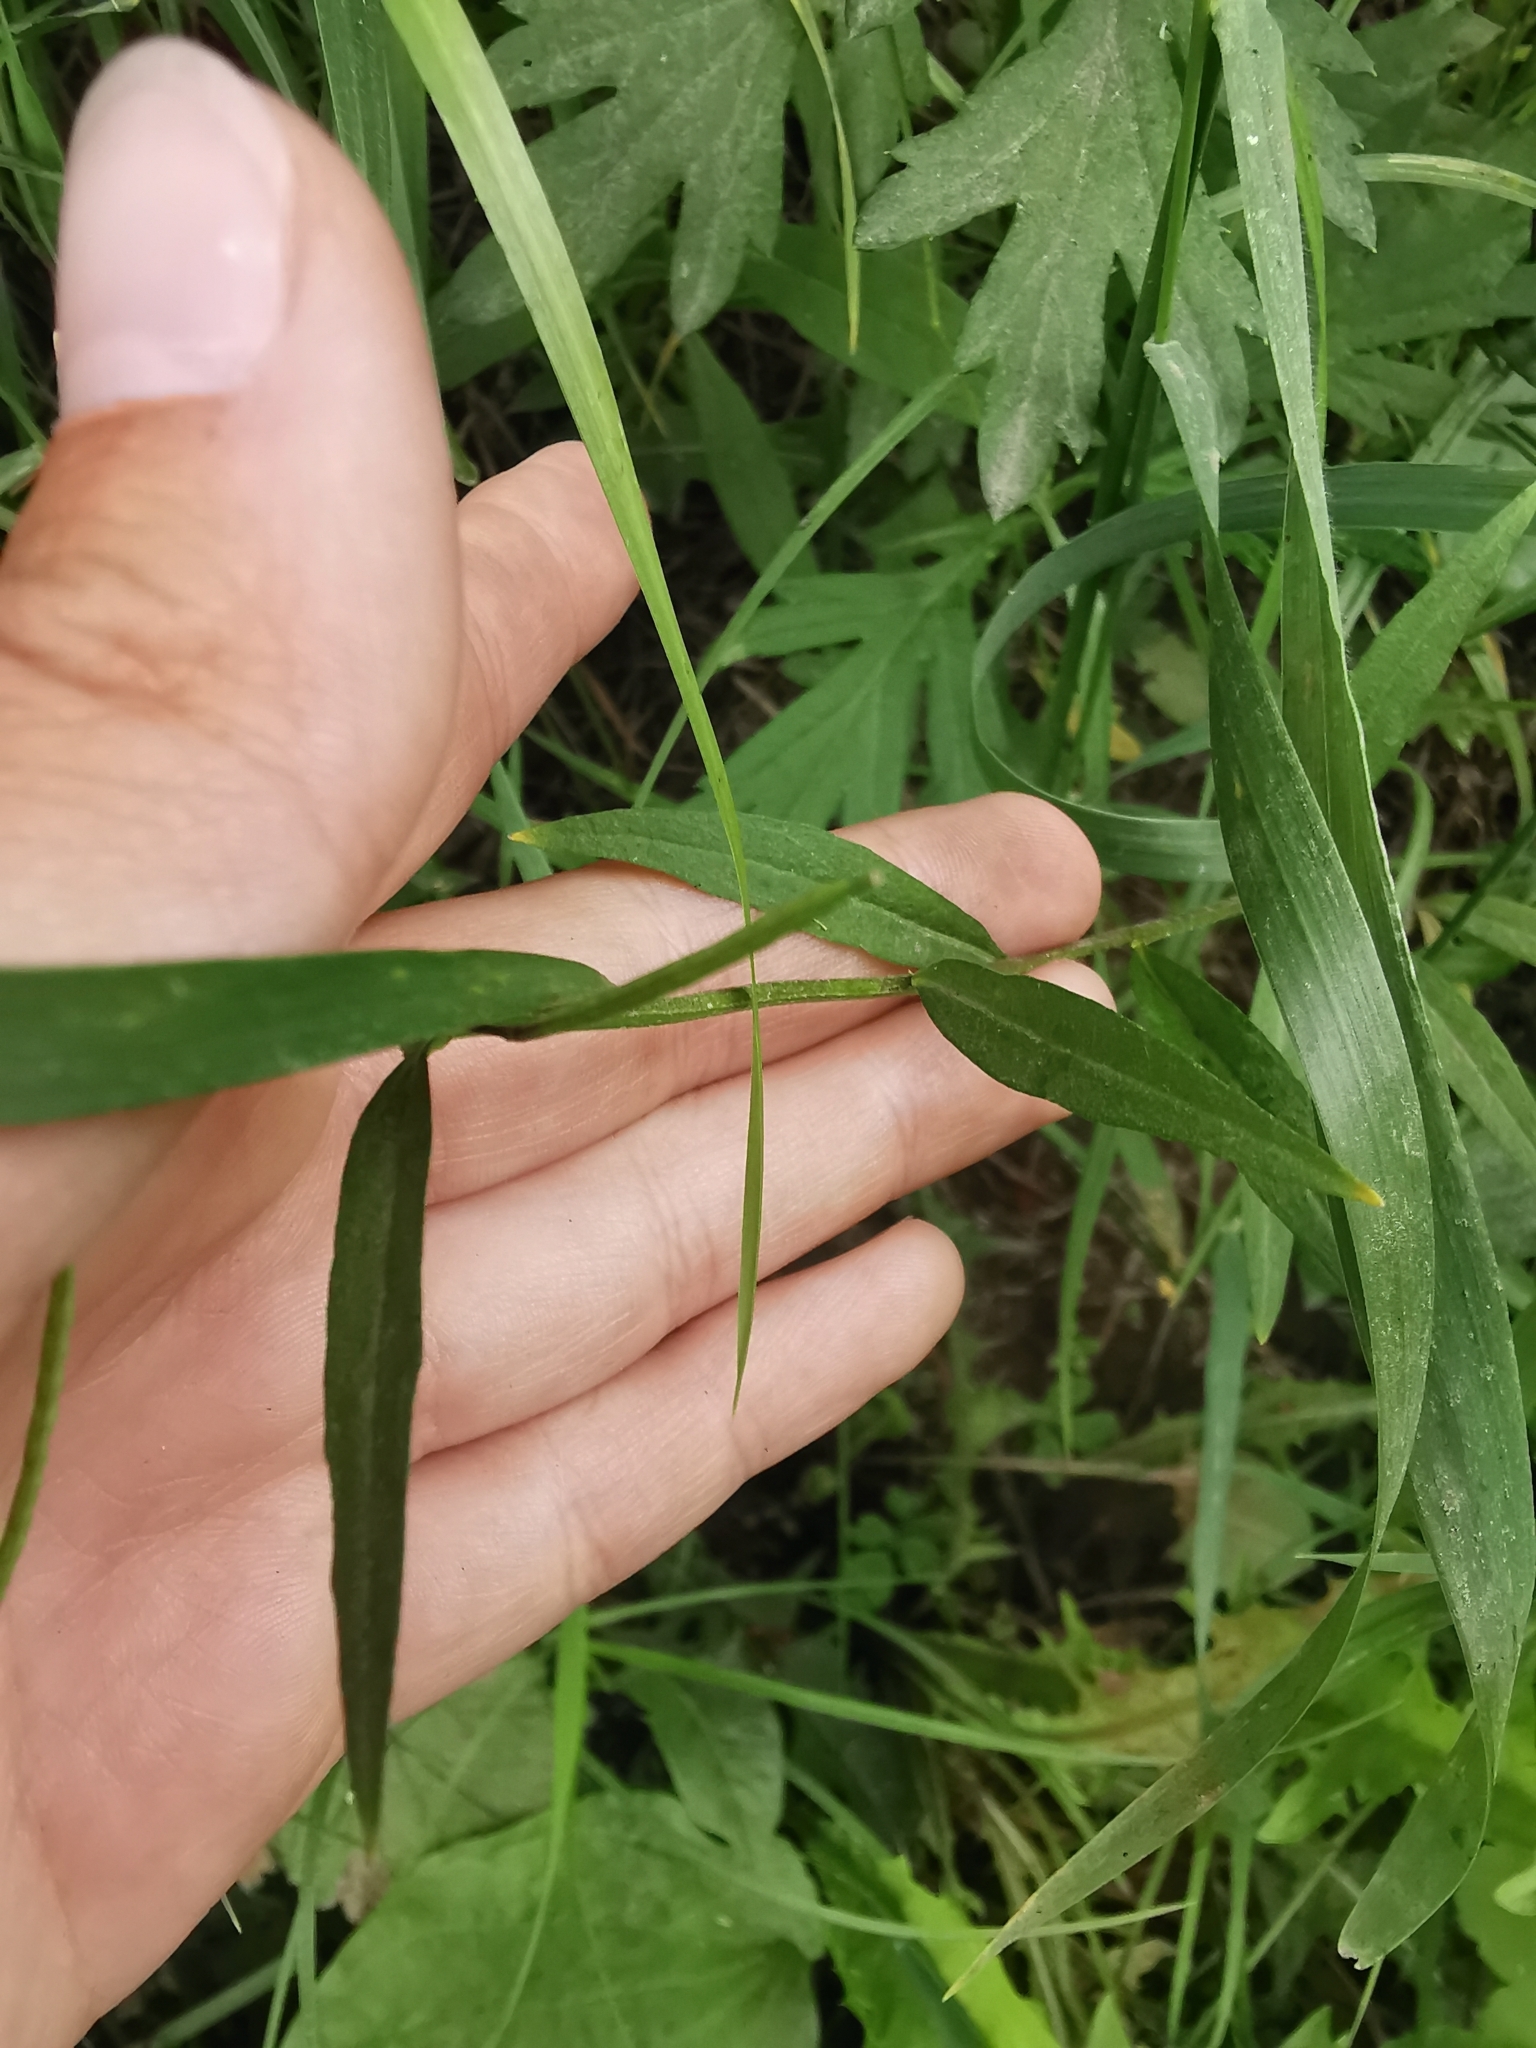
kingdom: Plantae
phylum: Tracheophyta
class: Magnoliopsida
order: Brassicales
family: Brassicaceae
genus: Erysimum
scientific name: Erysimum cheiranthoides
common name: Treacle mustard
